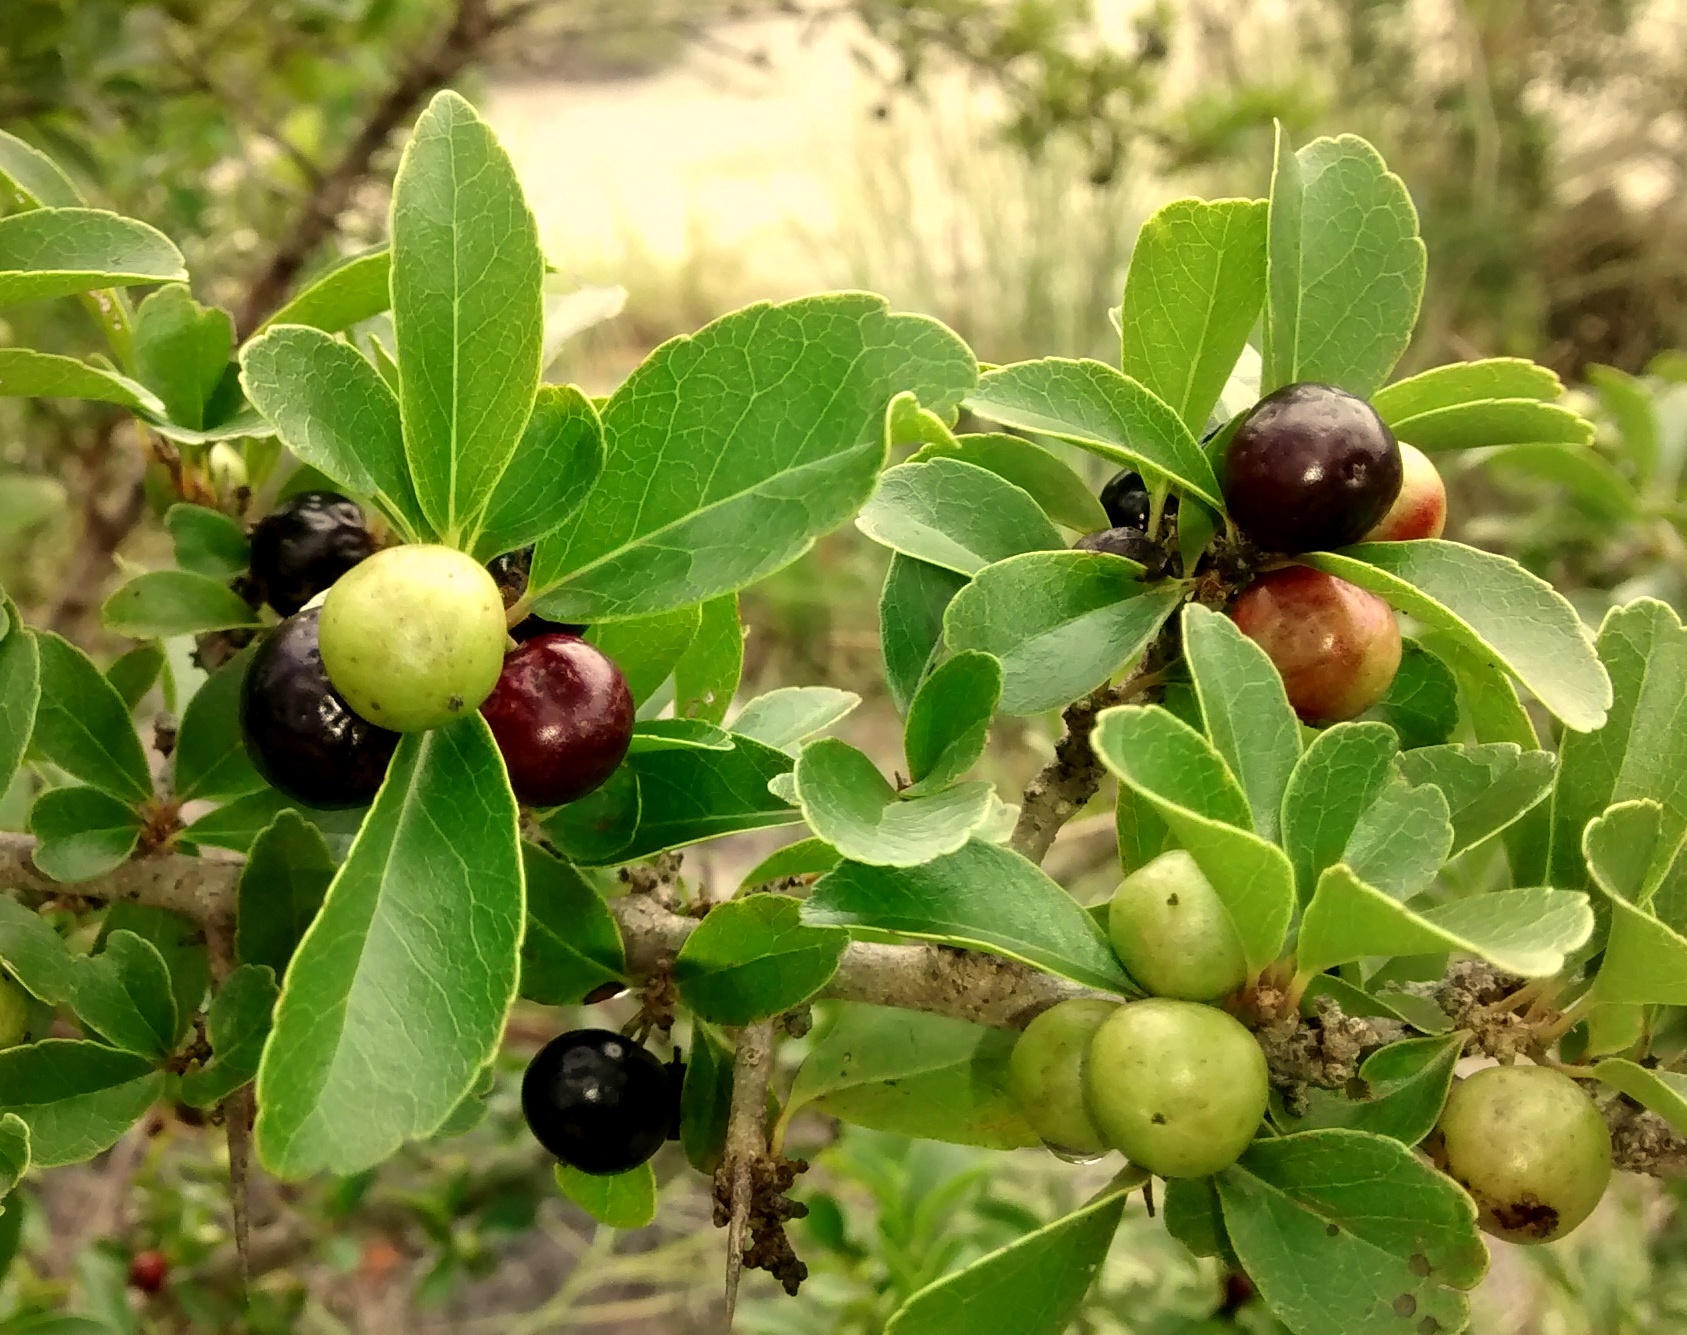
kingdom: Plantae
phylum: Tracheophyta
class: Magnoliopsida
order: Malpighiales
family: Salicaceae
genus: Flacourtia
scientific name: Flacourtia indica
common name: Governor's plum
